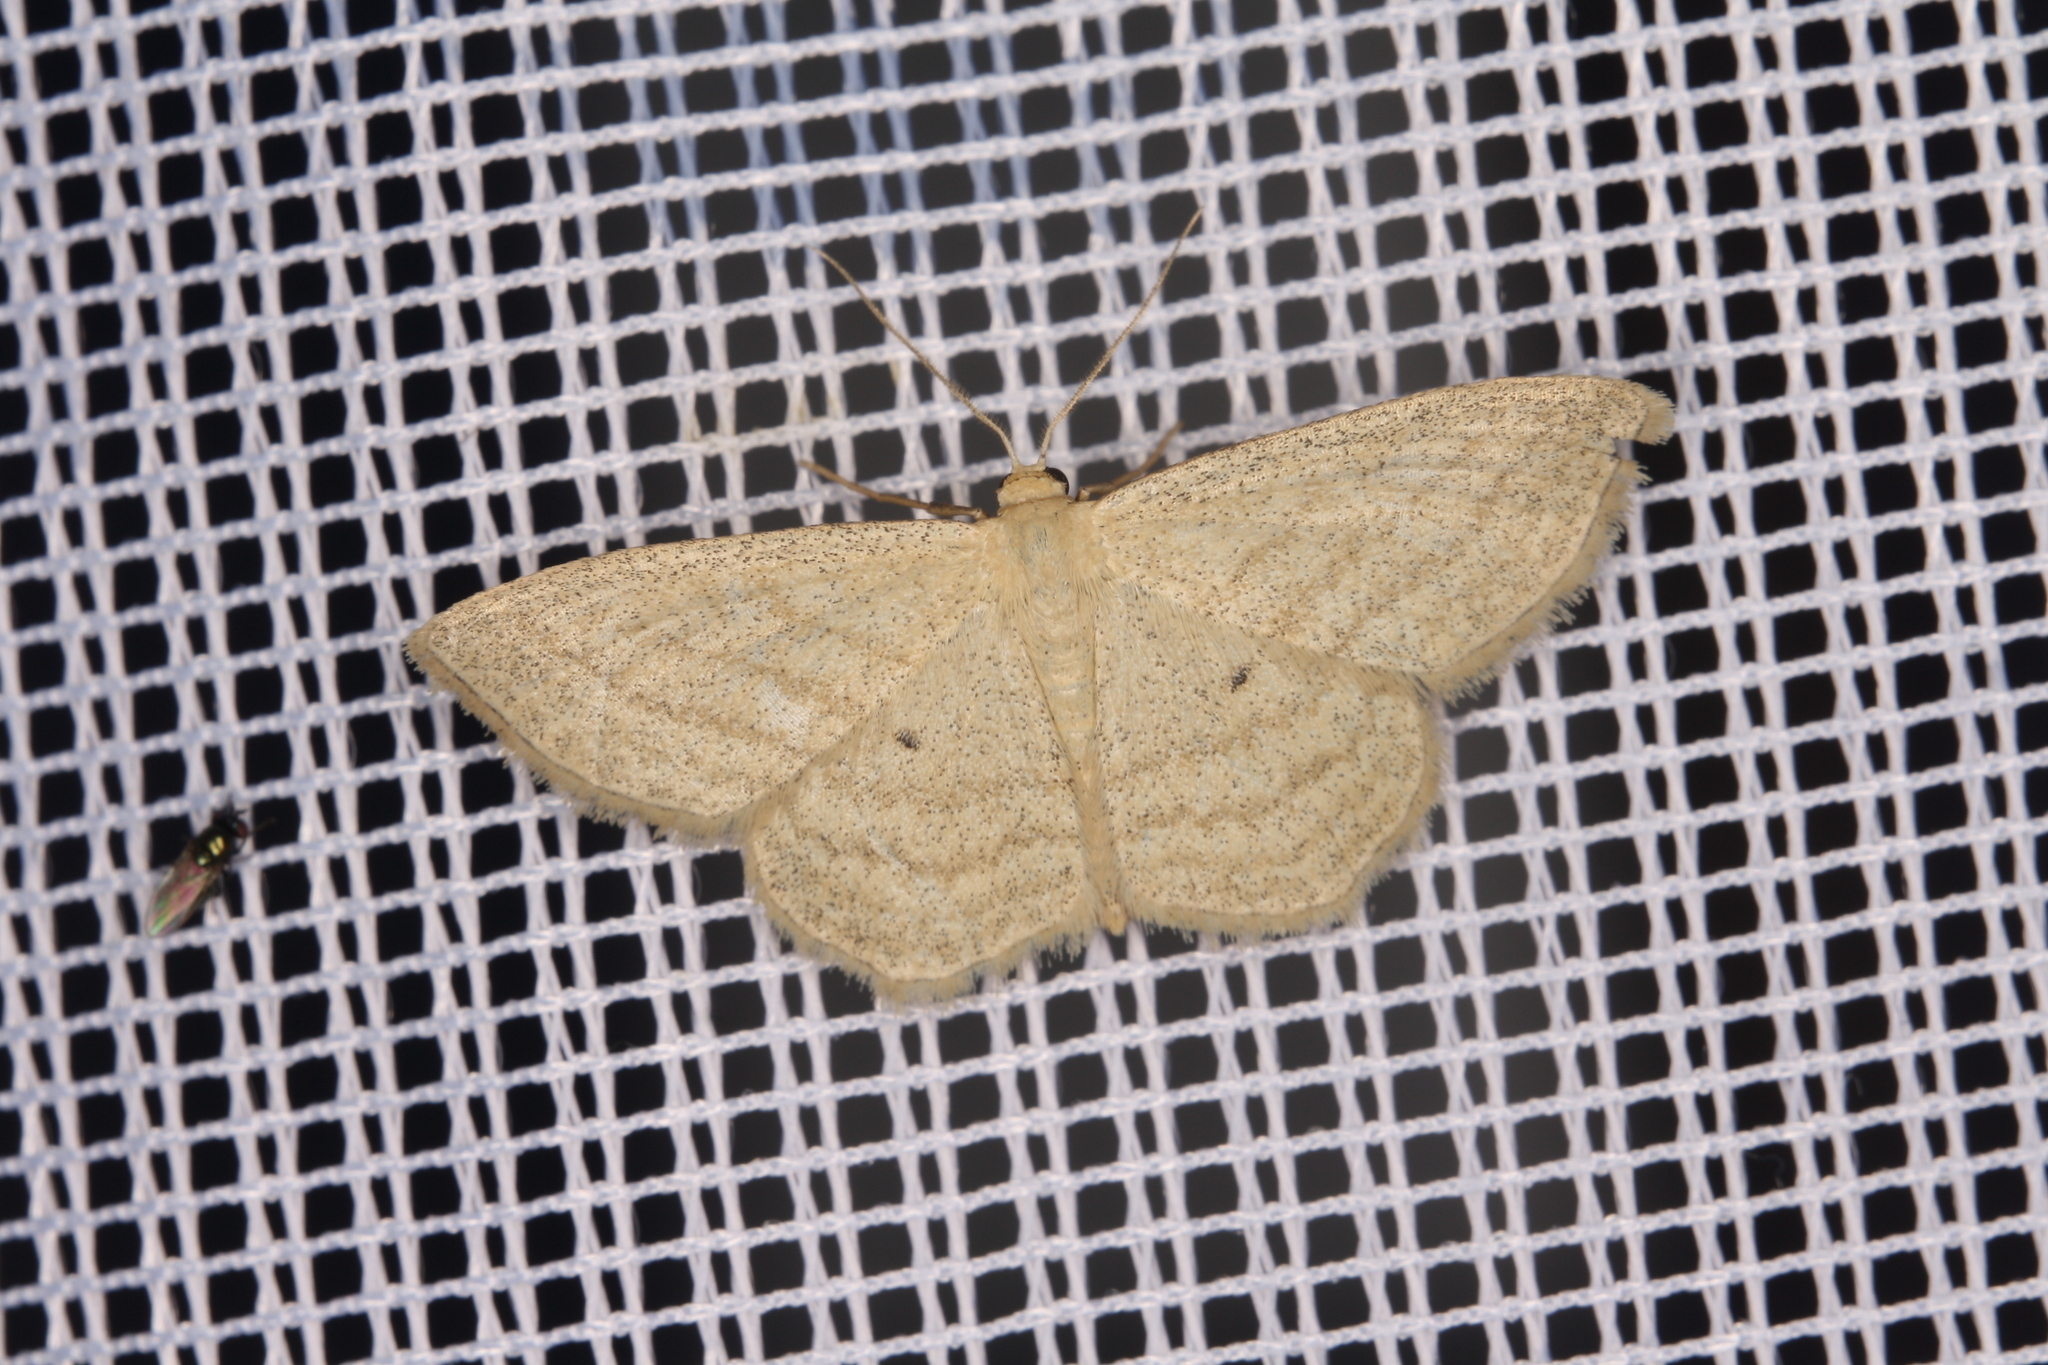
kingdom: Animalia
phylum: Arthropoda
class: Insecta
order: Lepidoptera
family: Geometridae
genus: Scopula
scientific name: Scopula virgulata
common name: Streaked wave
